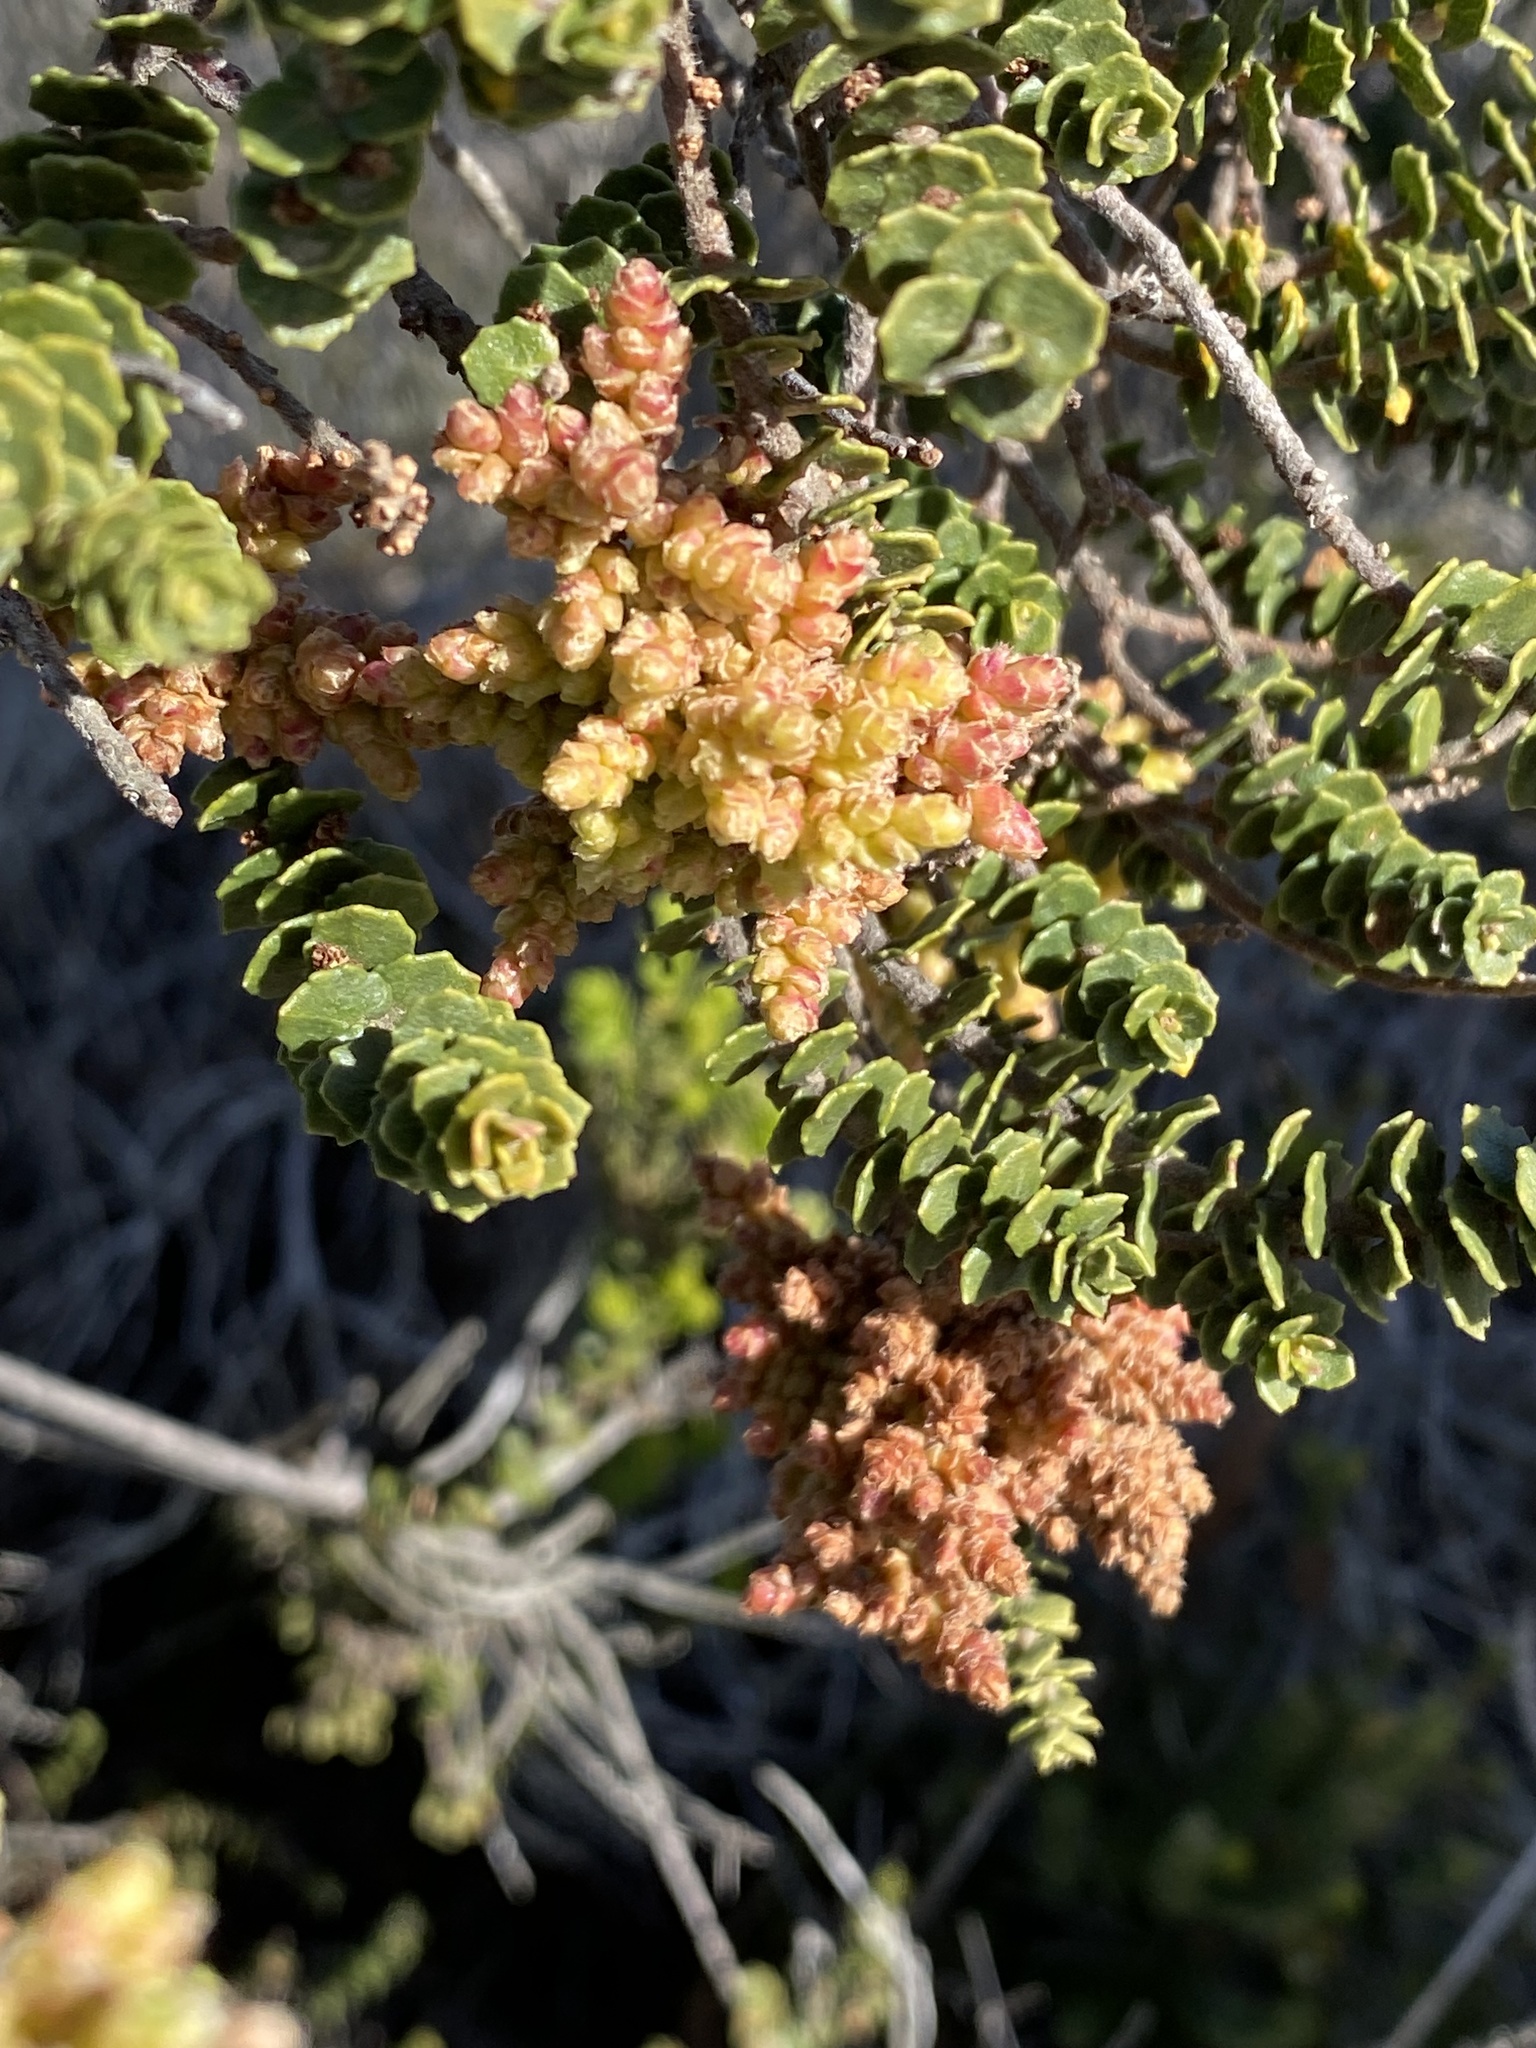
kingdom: Plantae
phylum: Tracheophyta
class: Magnoliopsida
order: Fagales
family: Myricaceae
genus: Morella
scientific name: Morella cordifolia
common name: Waxberry
